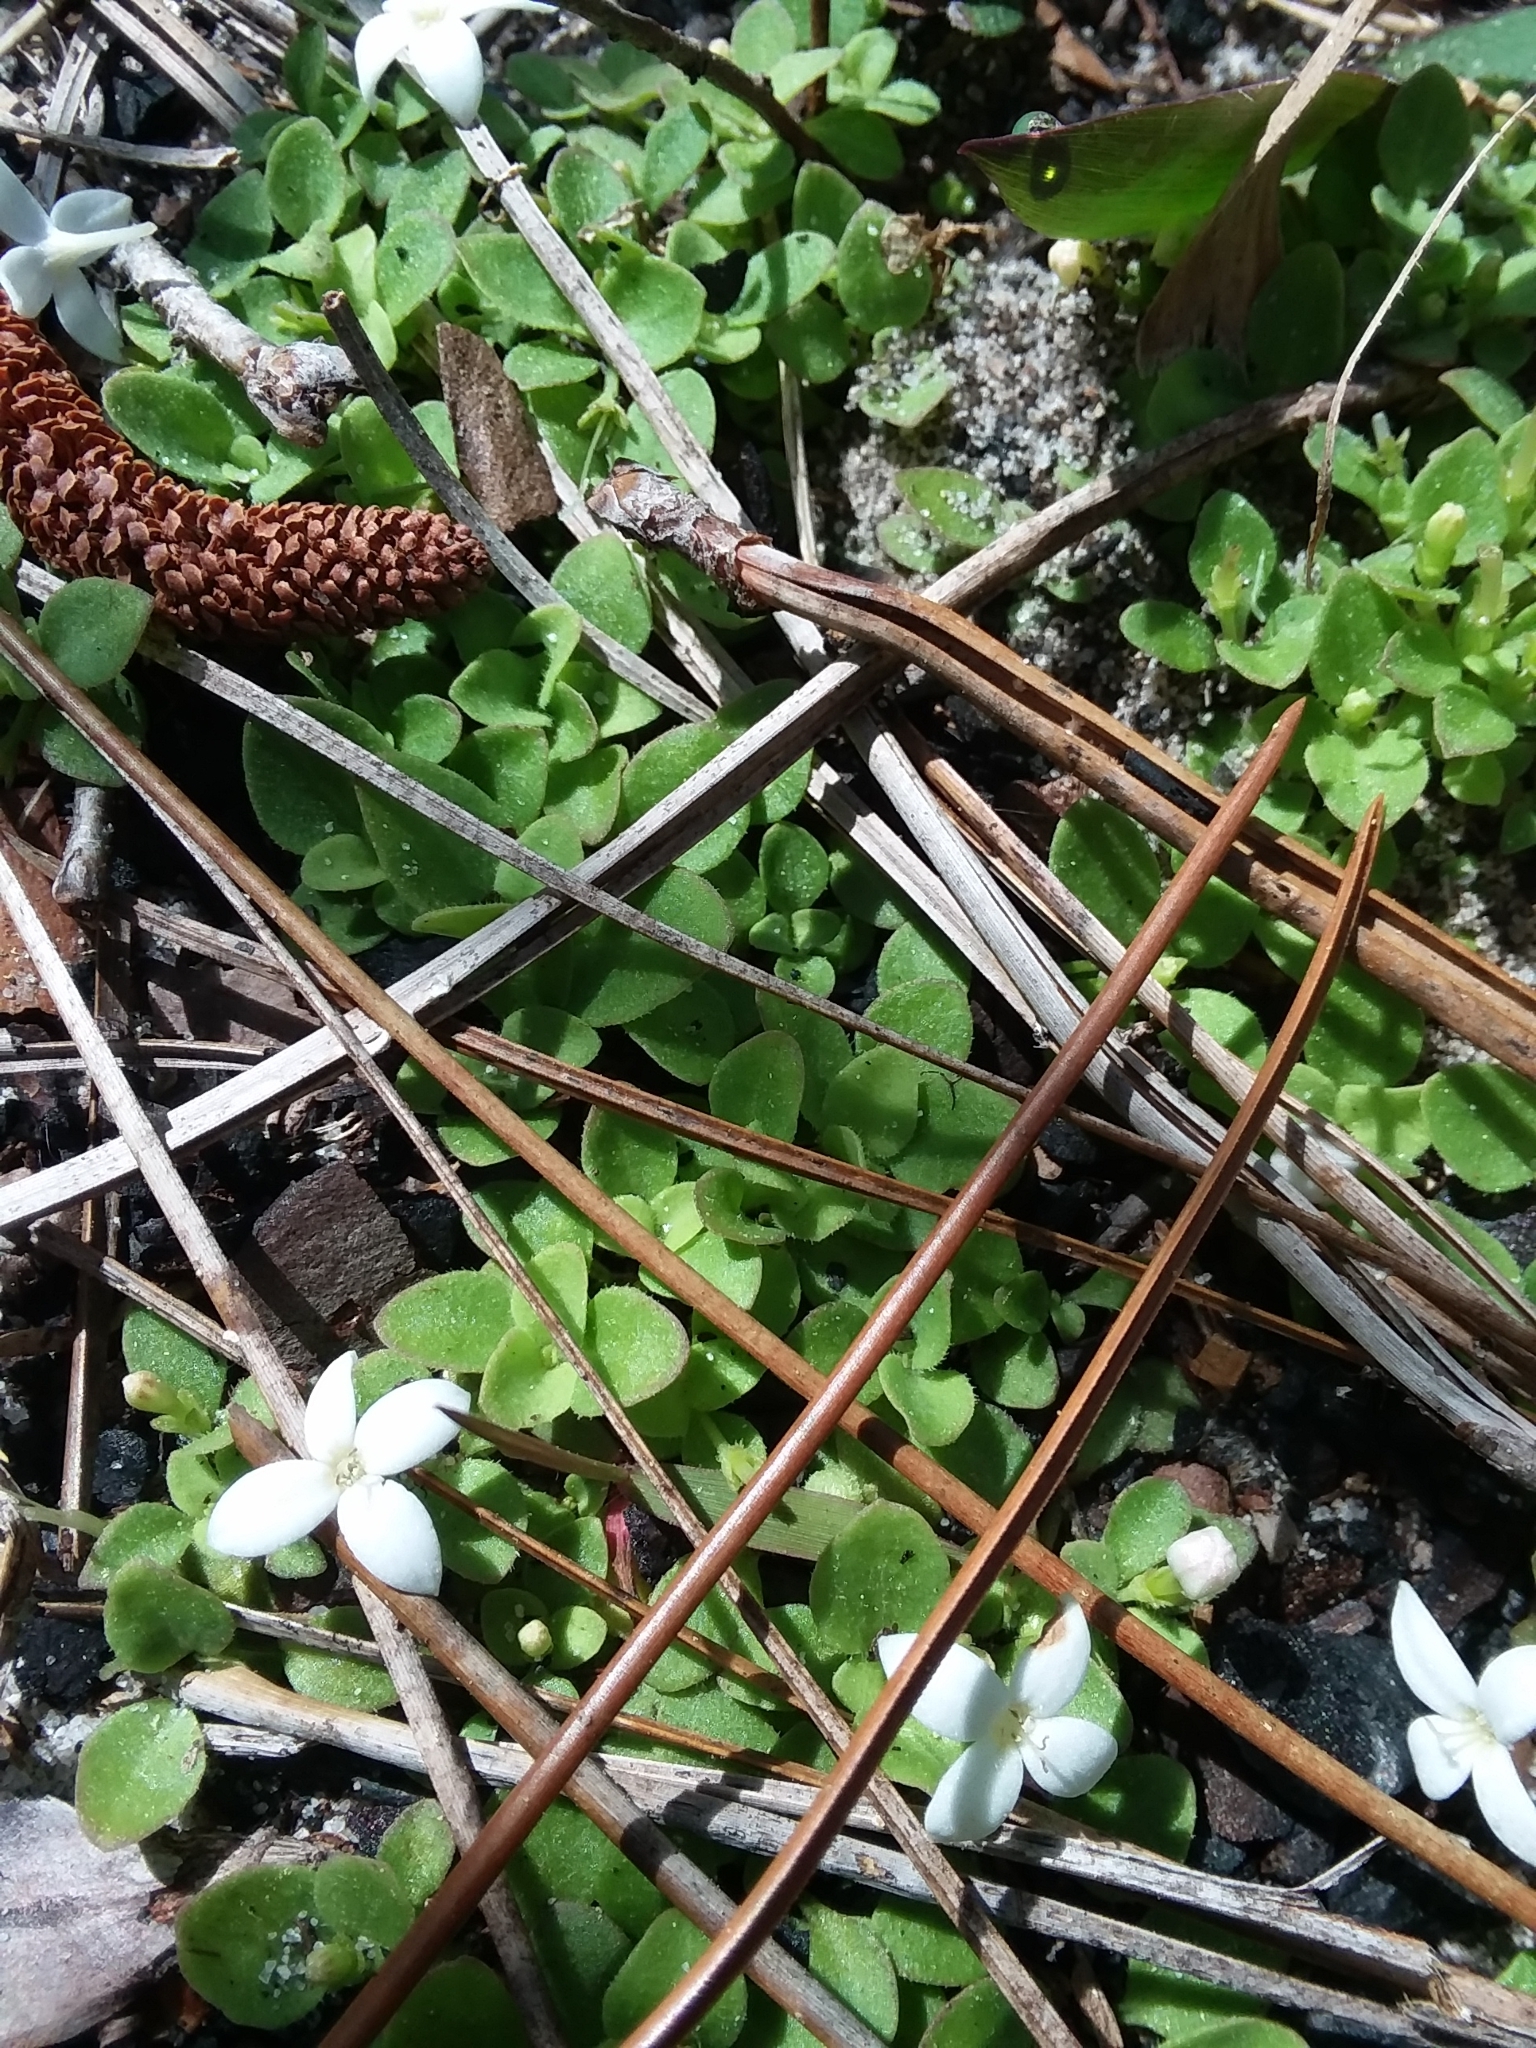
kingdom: Plantae
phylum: Tracheophyta
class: Magnoliopsida
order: Gentianales
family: Rubiaceae
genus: Houstonia
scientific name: Houstonia procumbens
